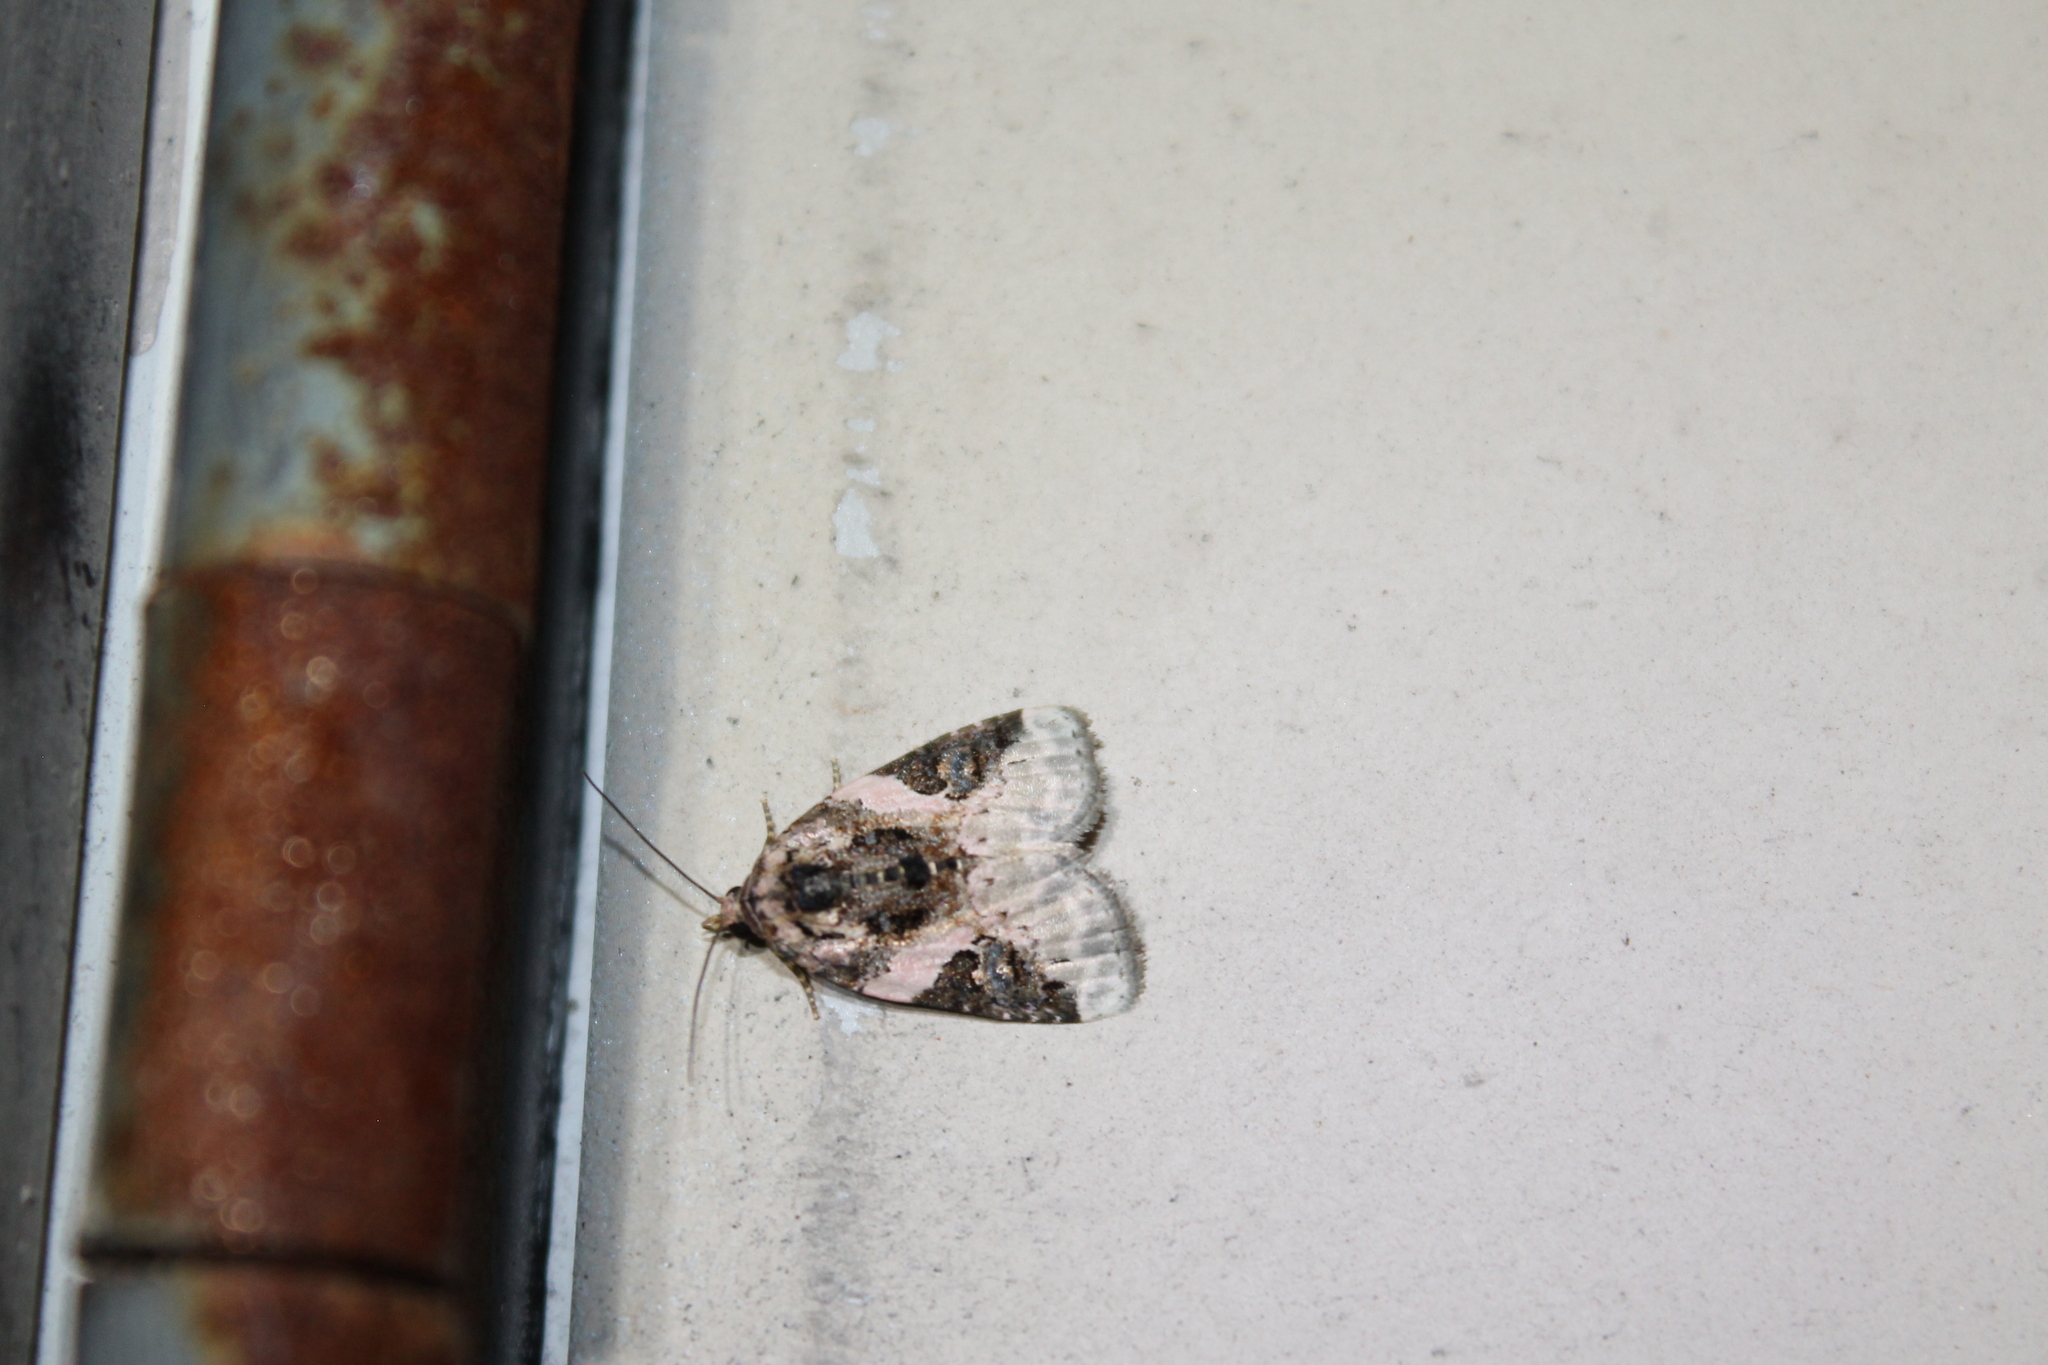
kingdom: Animalia
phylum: Arthropoda
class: Insecta
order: Lepidoptera
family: Noctuidae
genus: Pseudeustrotia
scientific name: Pseudeustrotia carneola
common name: Pink-barred lithacodia moth
